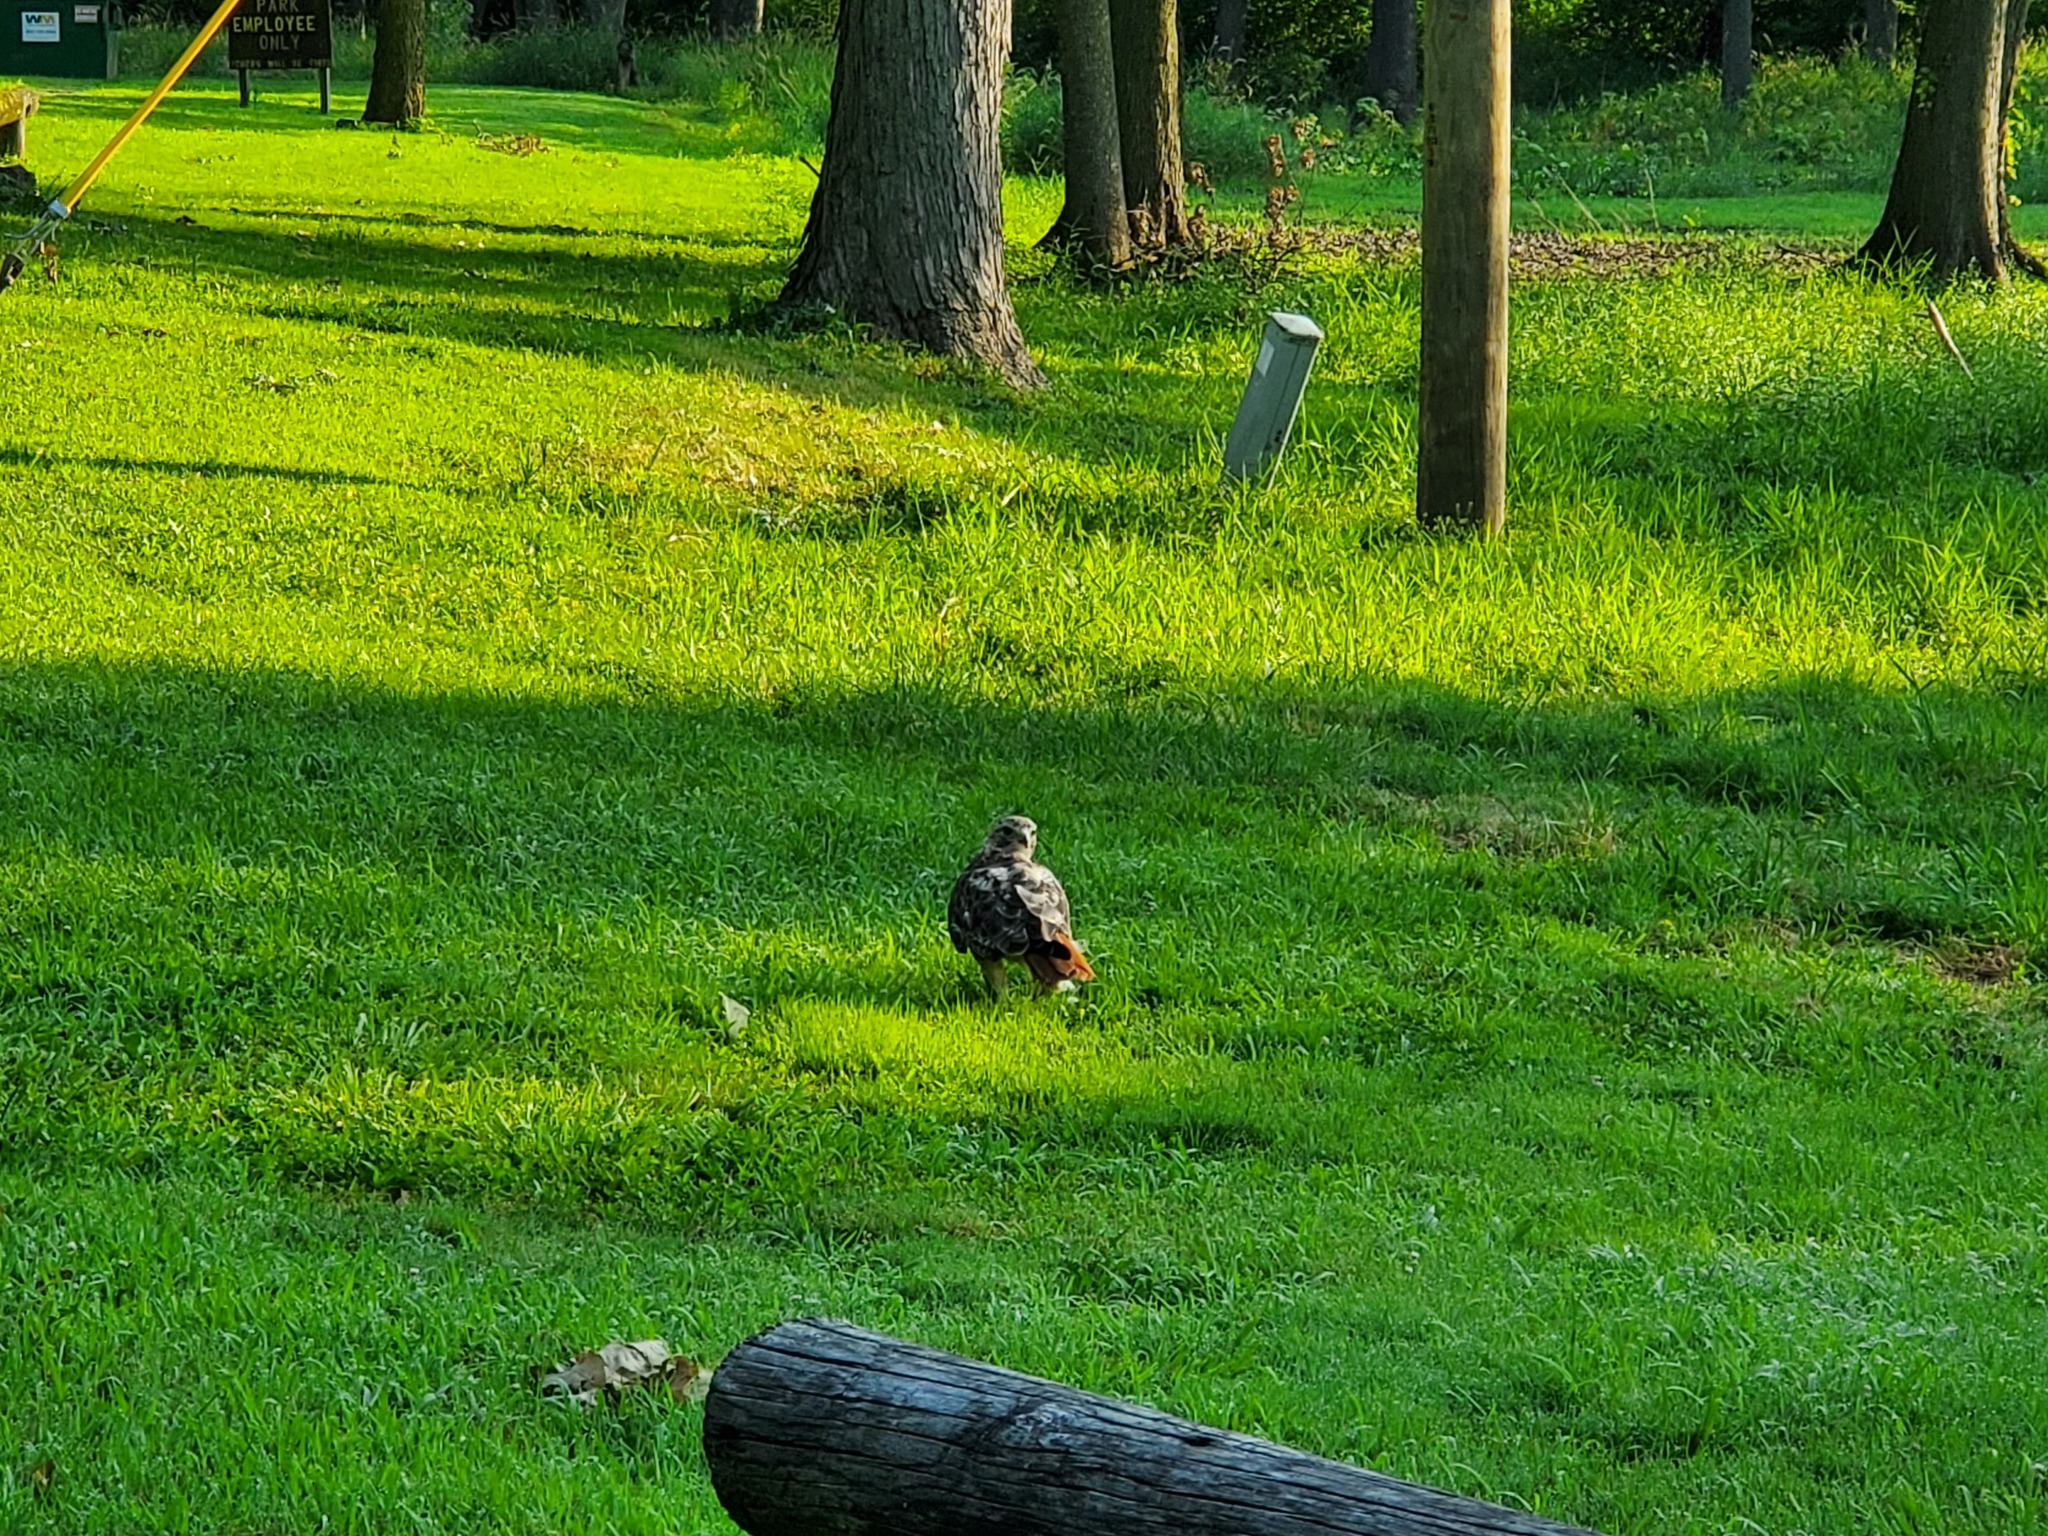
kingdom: Animalia
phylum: Chordata
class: Aves
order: Accipitriformes
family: Accipitridae
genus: Buteo
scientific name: Buteo jamaicensis
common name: Red-tailed hawk
